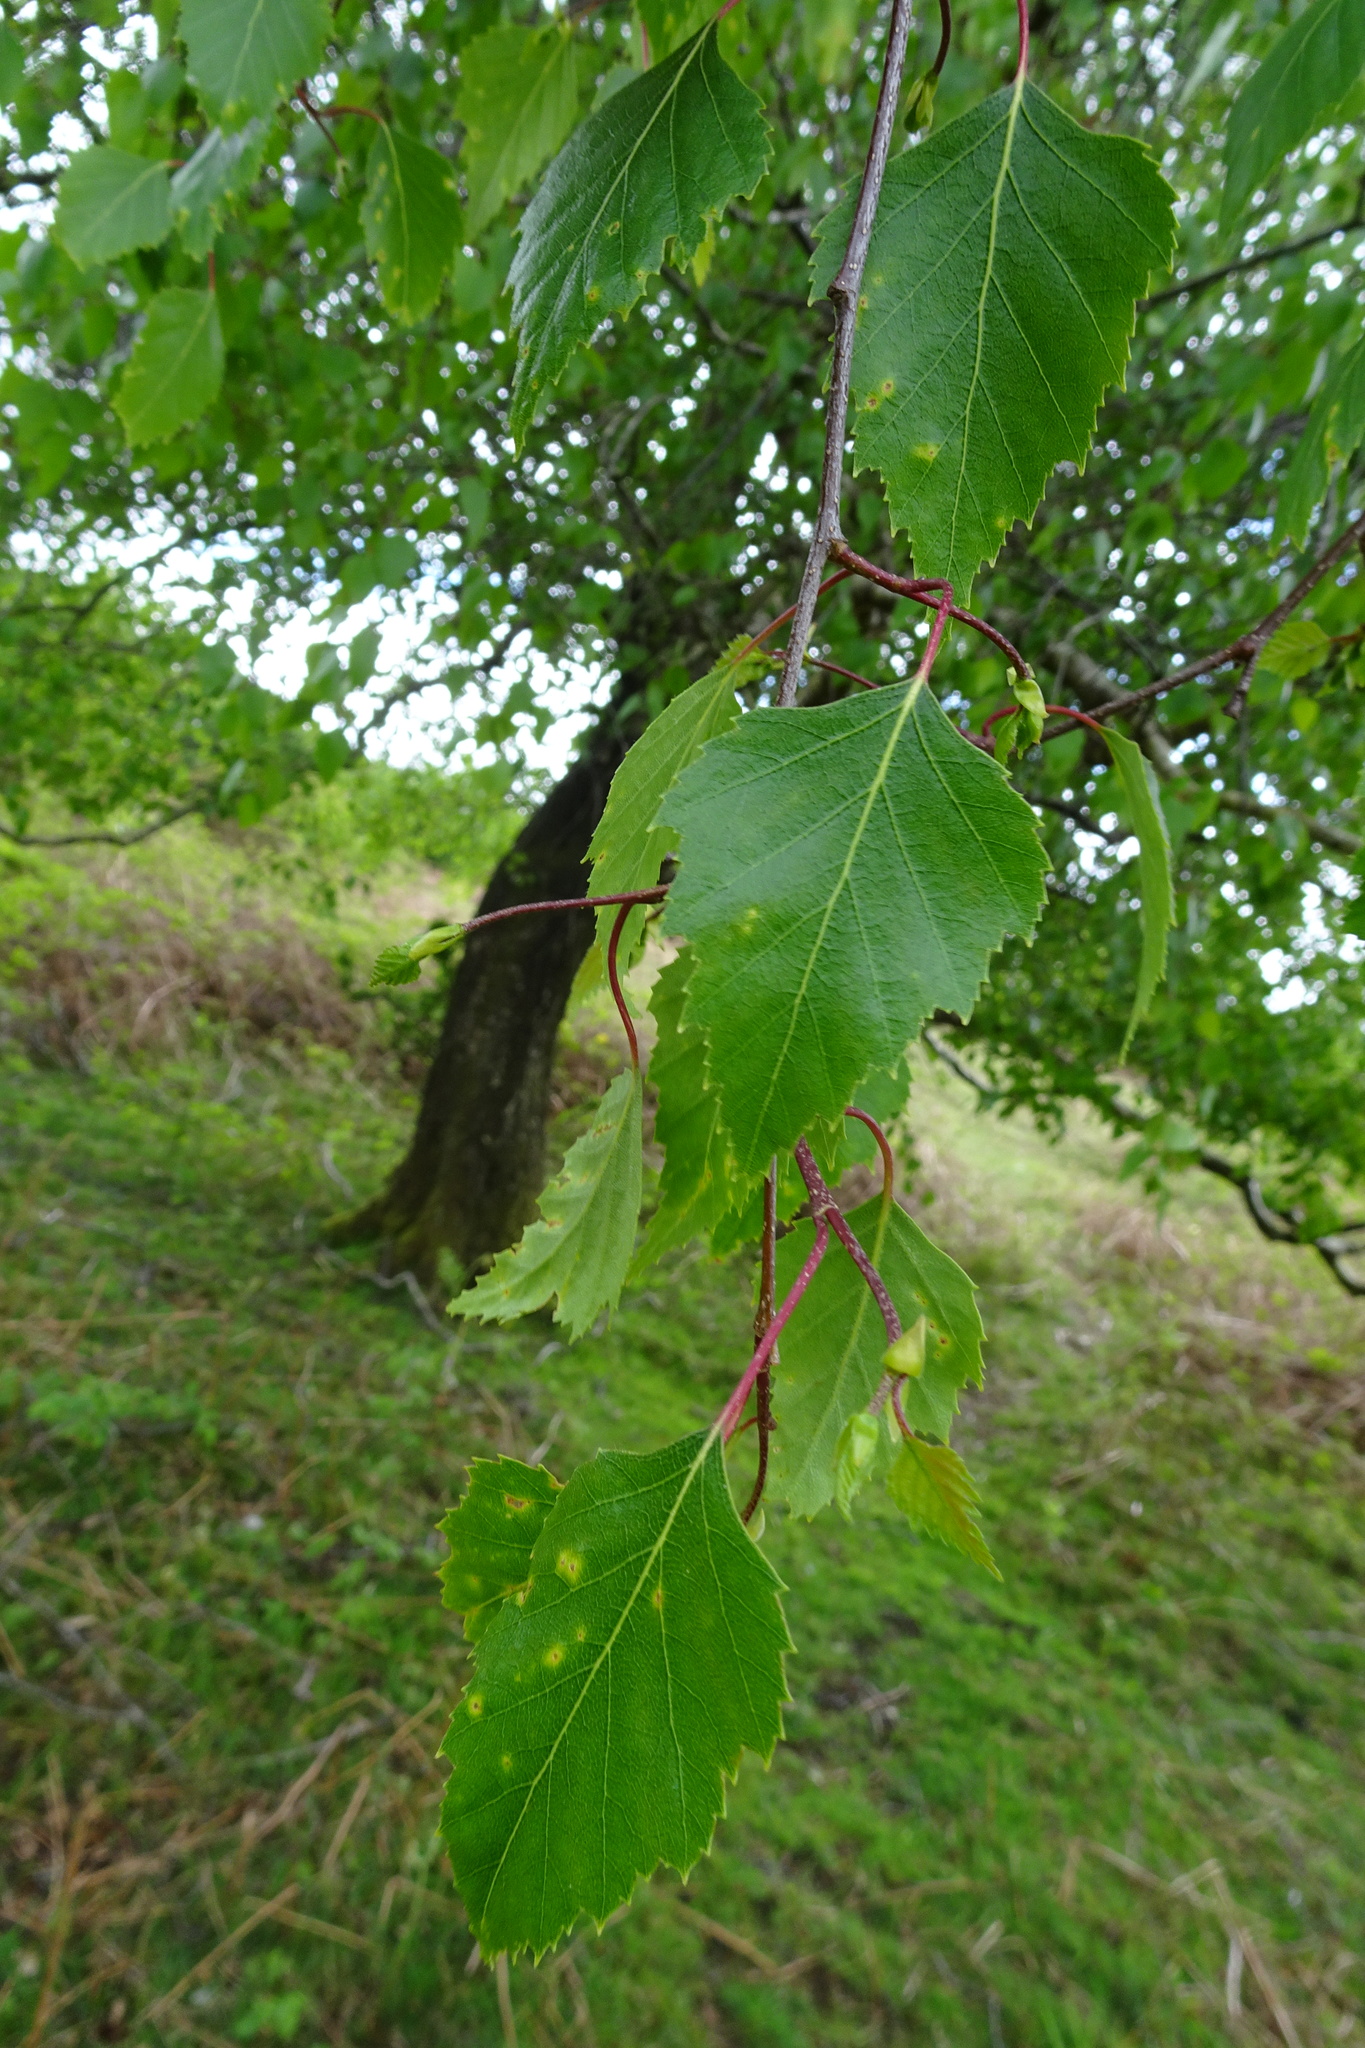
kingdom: Plantae
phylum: Tracheophyta
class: Magnoliopsida
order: Fagales
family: Betulaceae
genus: Betula
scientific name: Betula pendula
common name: Silver birch
